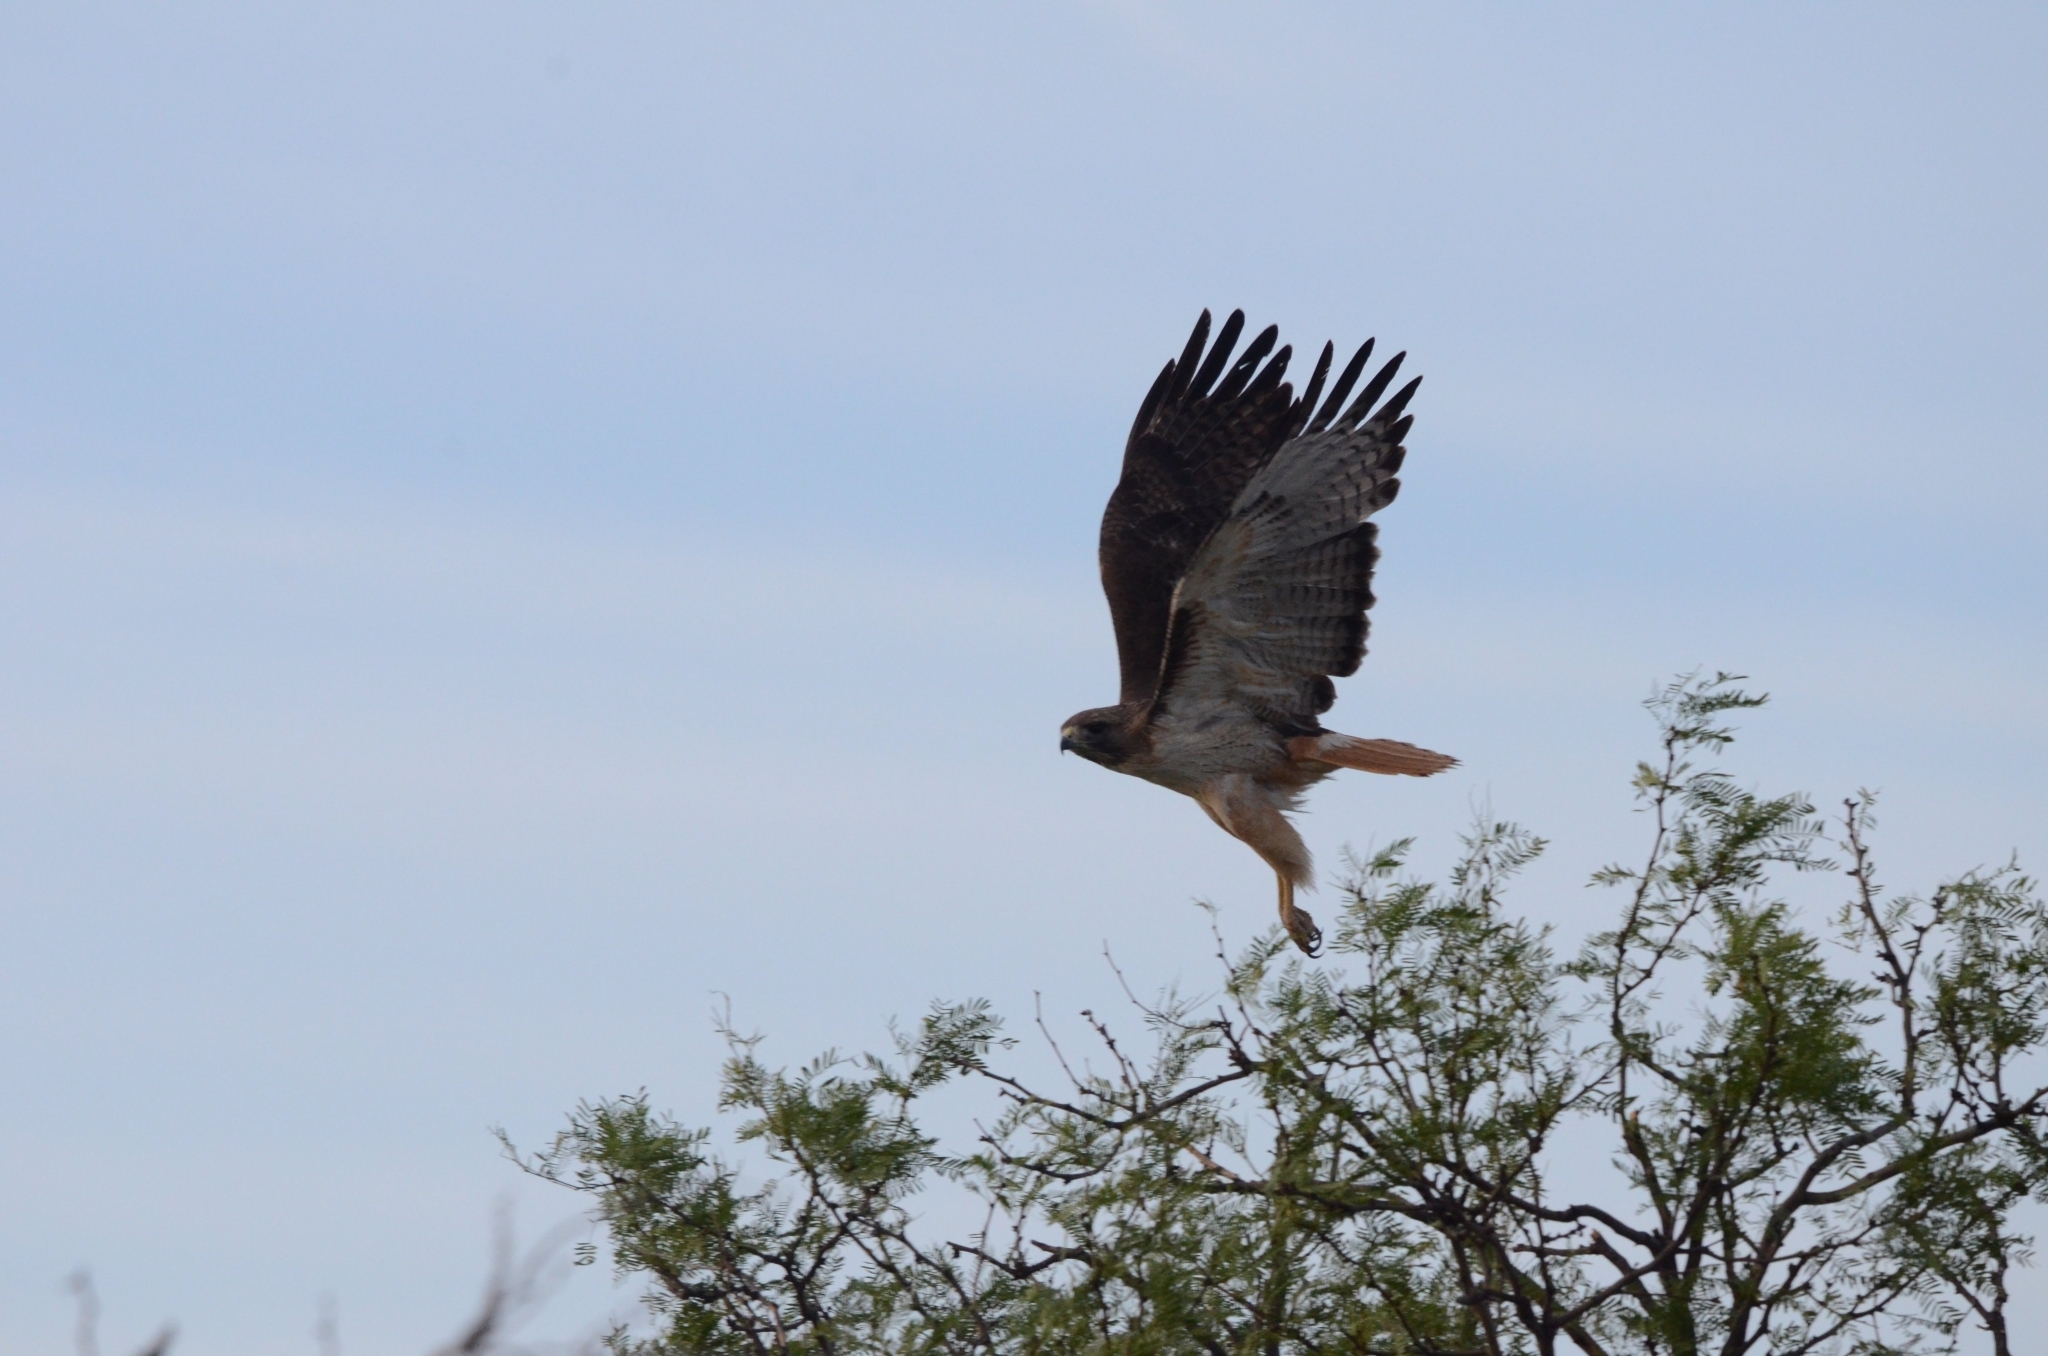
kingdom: Animalia
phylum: Chordata
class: Aves
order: Accipitriformes
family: Accipitridae
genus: Buteo
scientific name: Buteo jamaicensis
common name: Red-tailed hawk
